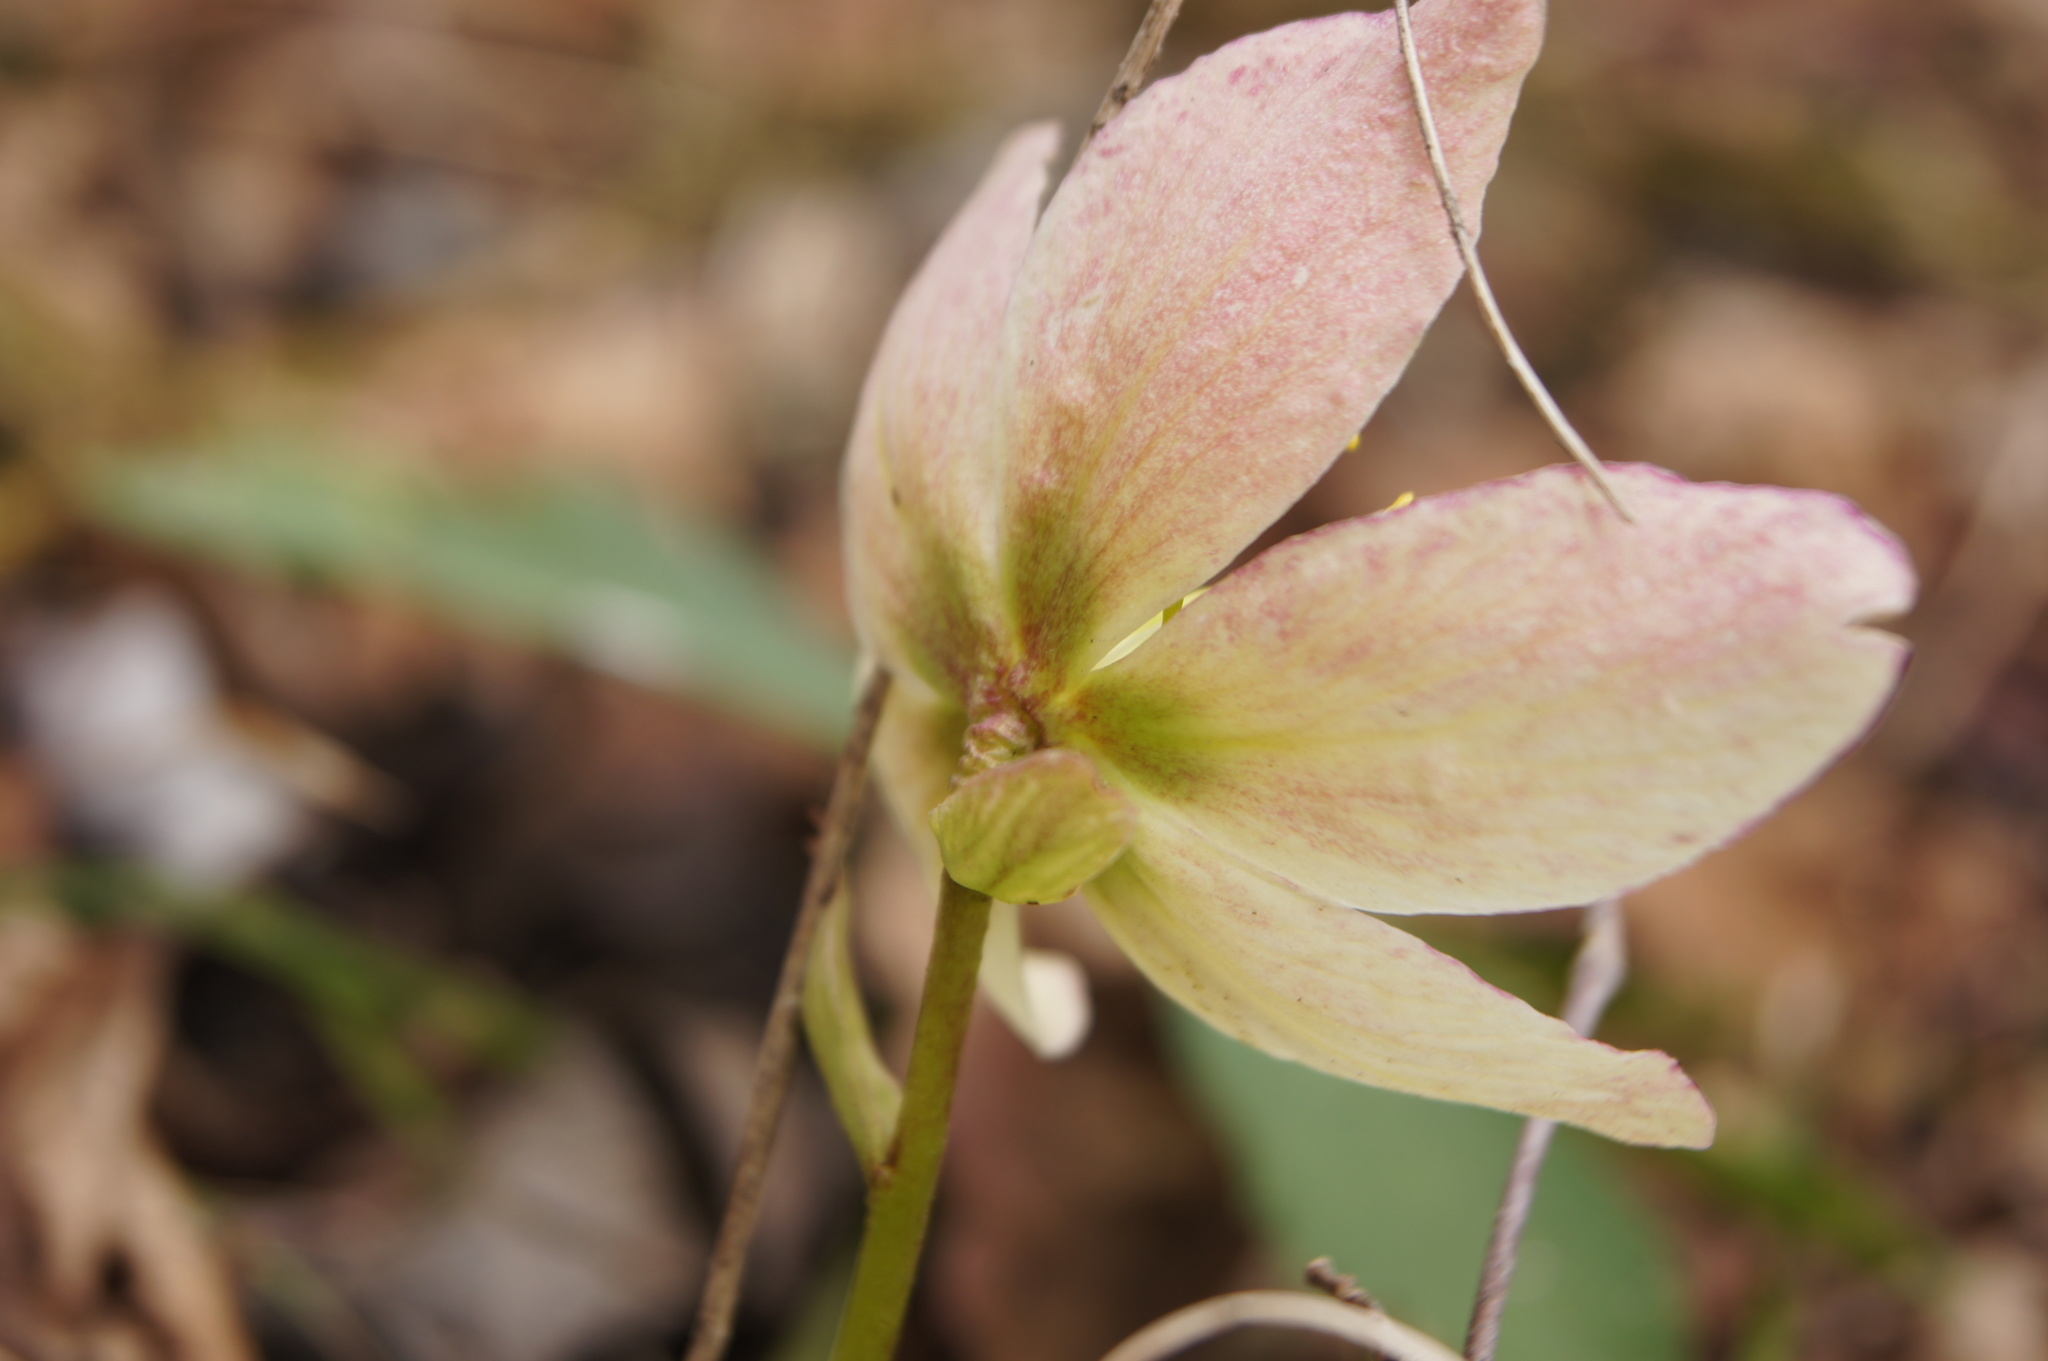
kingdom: Plantae
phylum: Tracheophyta
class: Magnoliopsida
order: Ranunculales
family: Ranunculaceae
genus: Helleborus
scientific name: Helleborus niger
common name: Black hellebore
